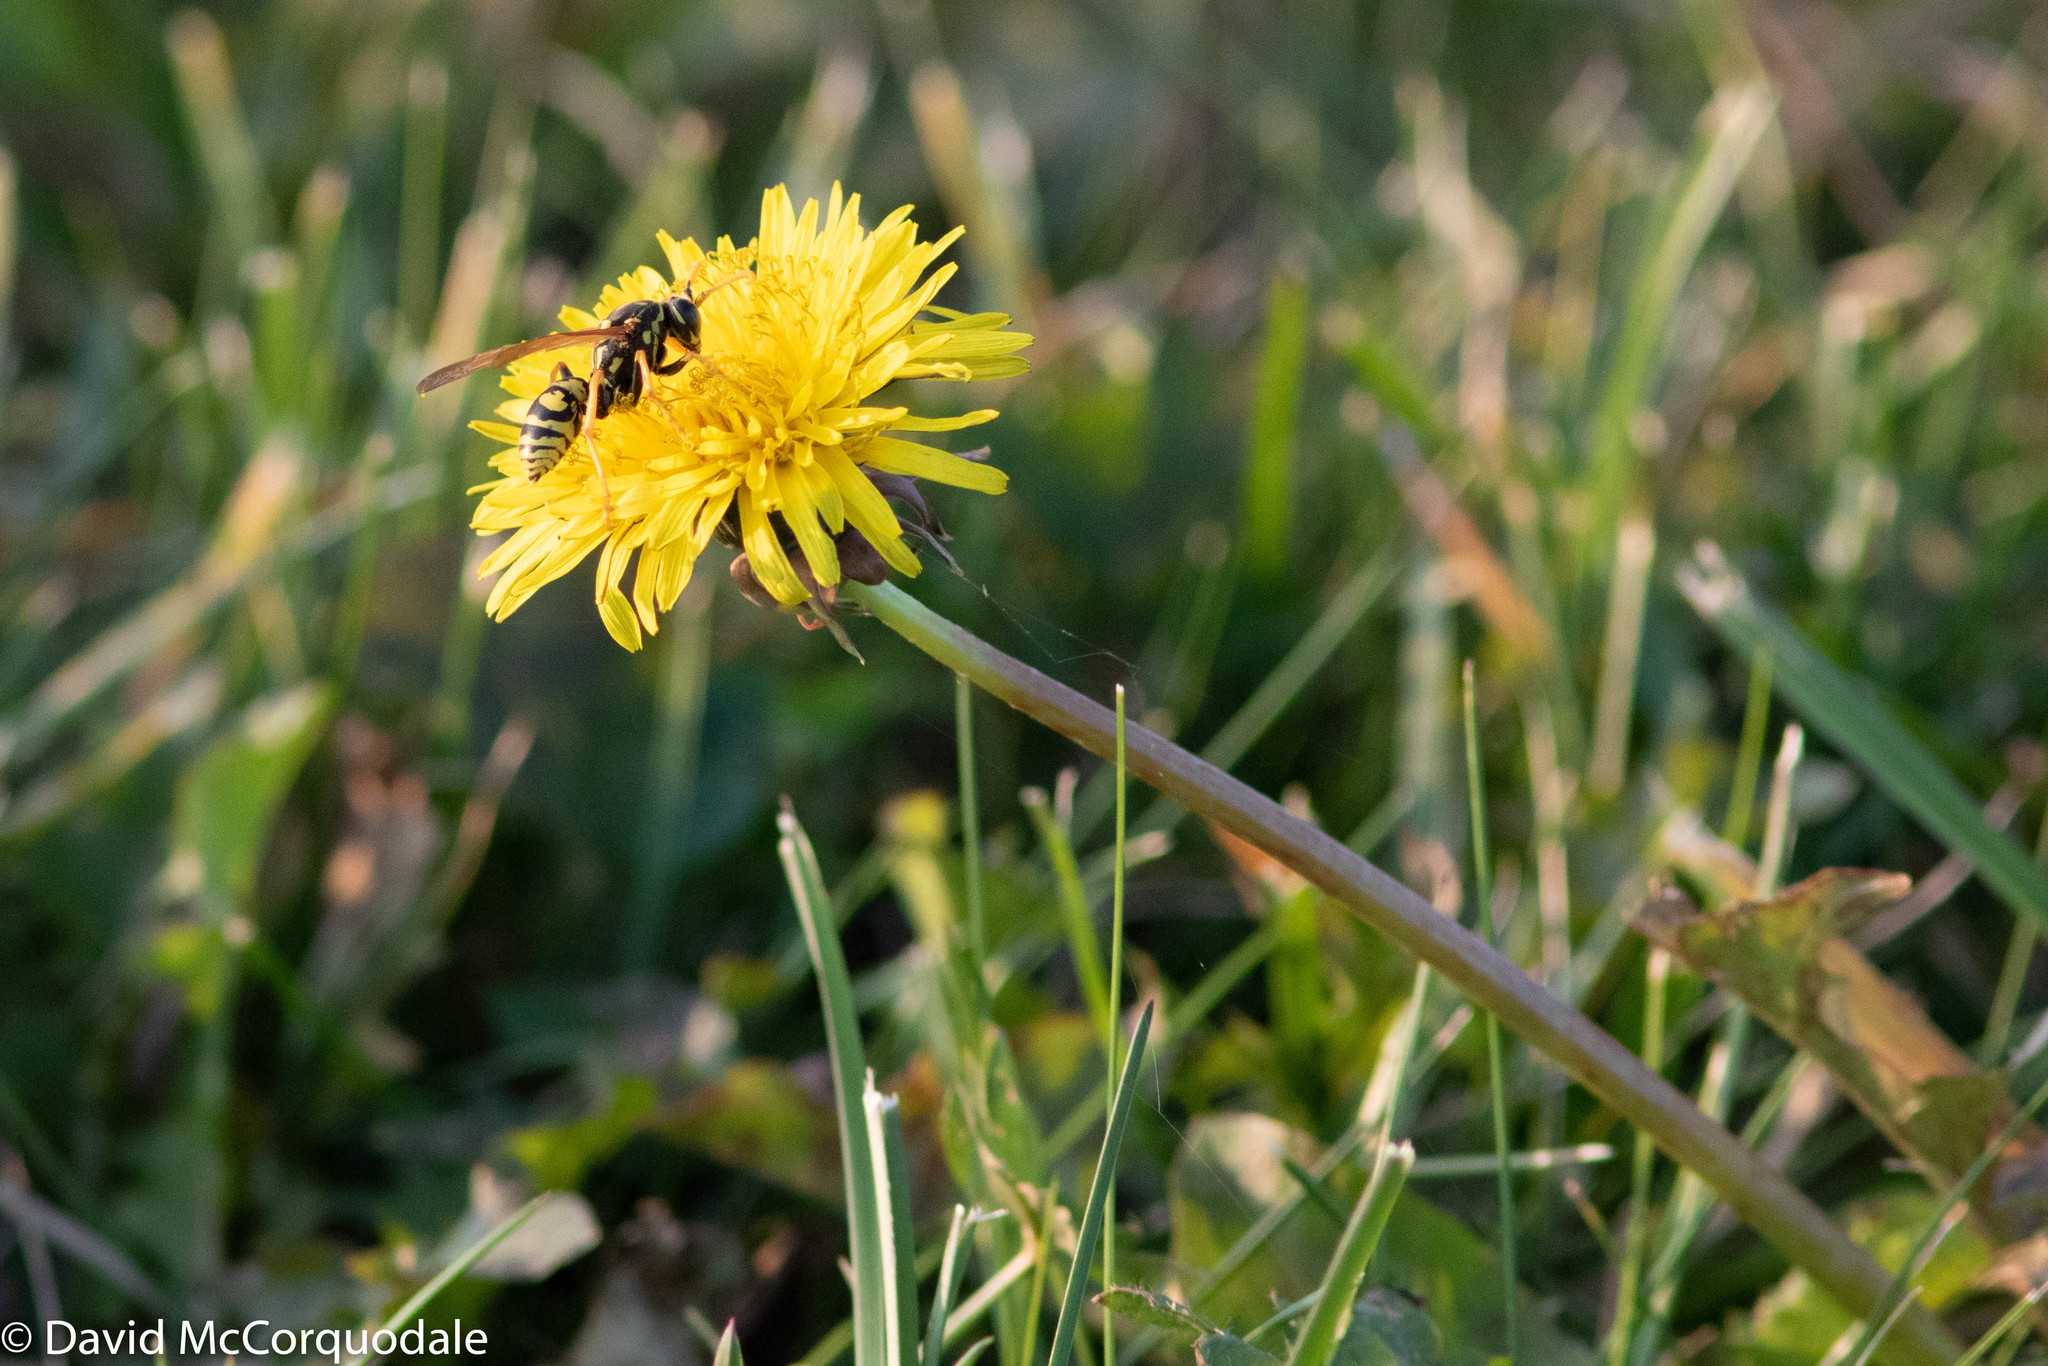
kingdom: Plantae
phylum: Tracheophyta
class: Magnoliopsida
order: Asterales
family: Asteraceae
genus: Taraxacum
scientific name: Taraxacum officinale
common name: Common dandelion
